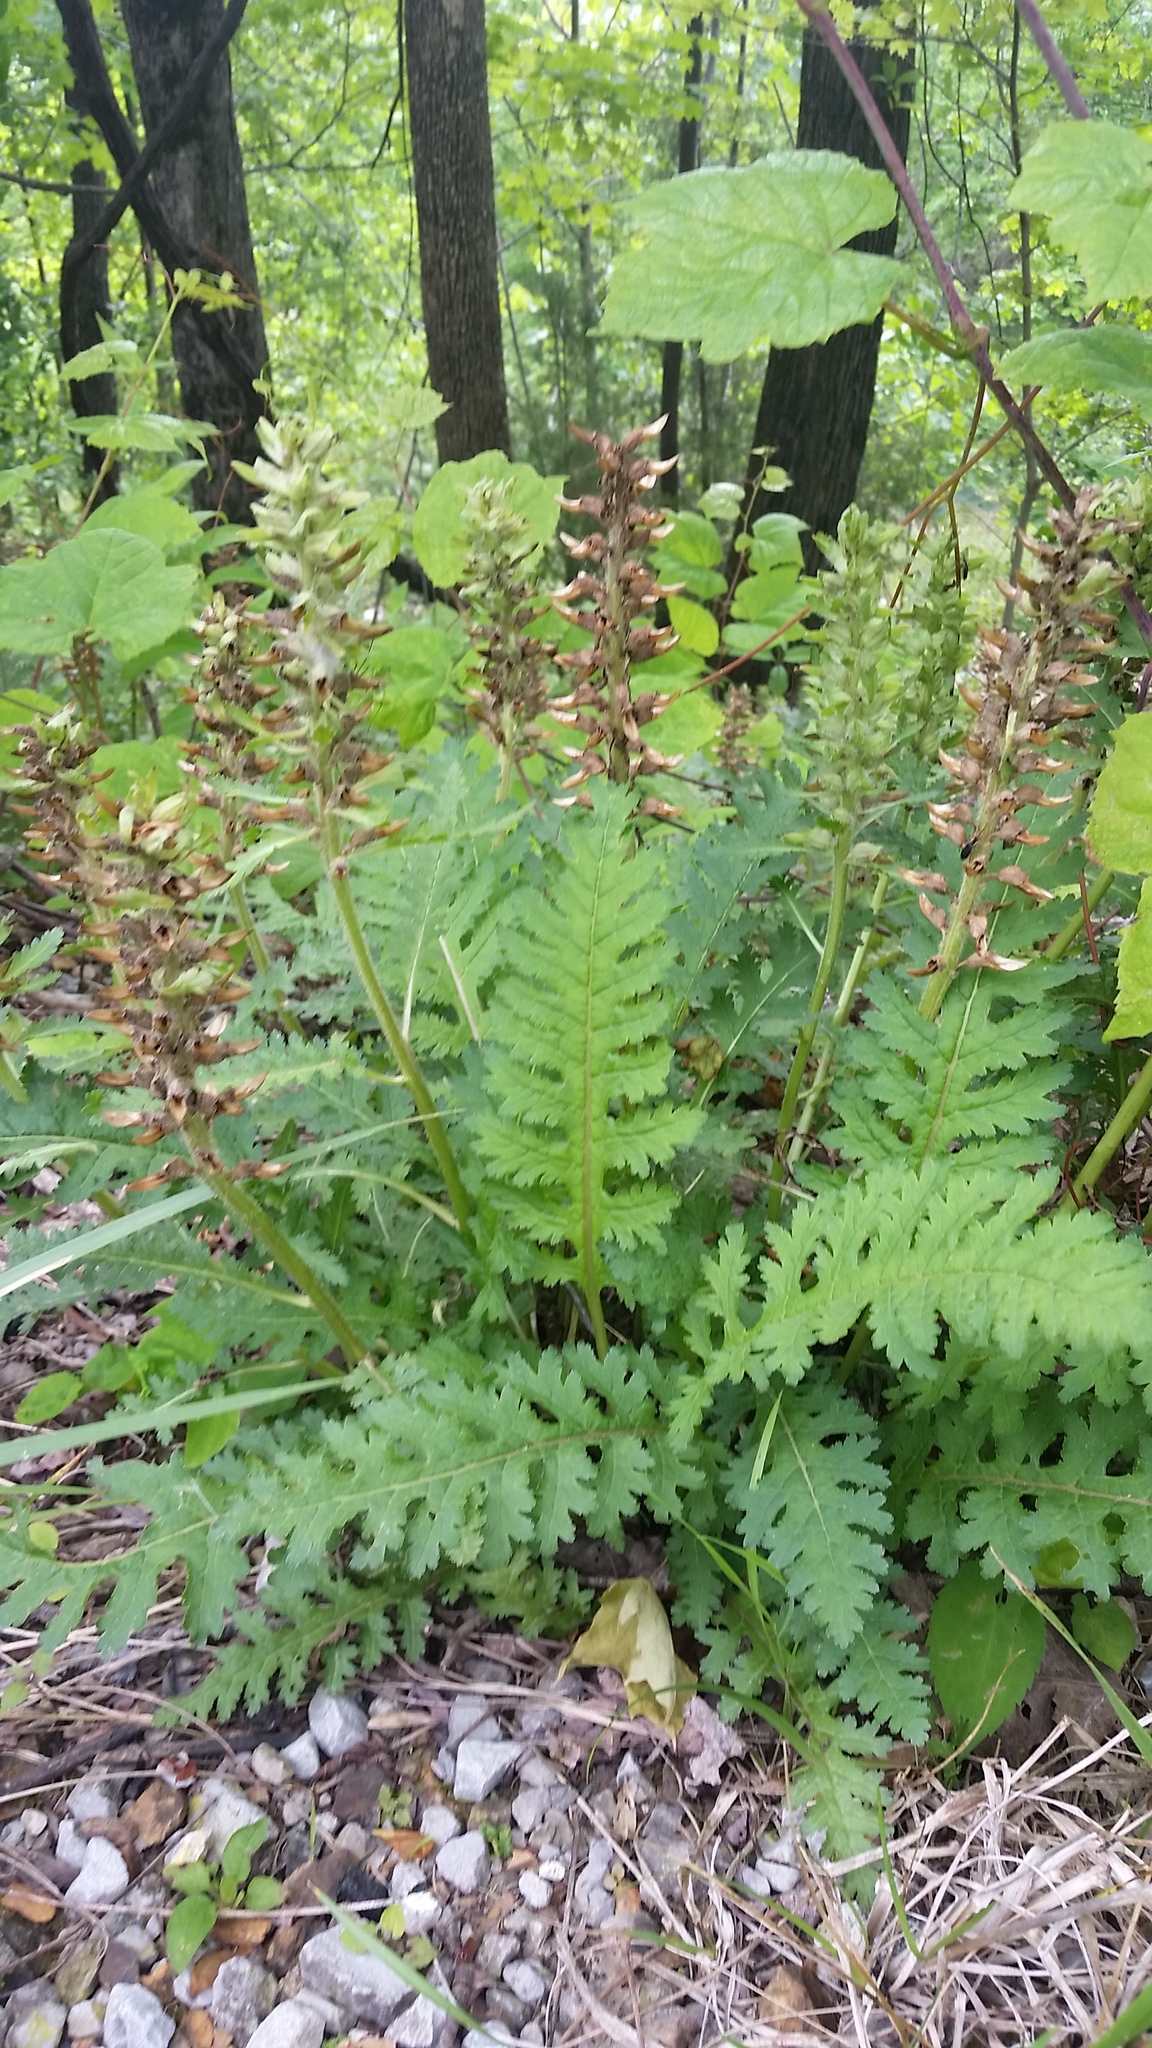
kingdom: Plantae
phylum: Tracheophyta
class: Magnoliopsida
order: Lamiales
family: Orobanchaceae
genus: Pedicularis
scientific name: Pedicularis canadensis
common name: Early lousewort
